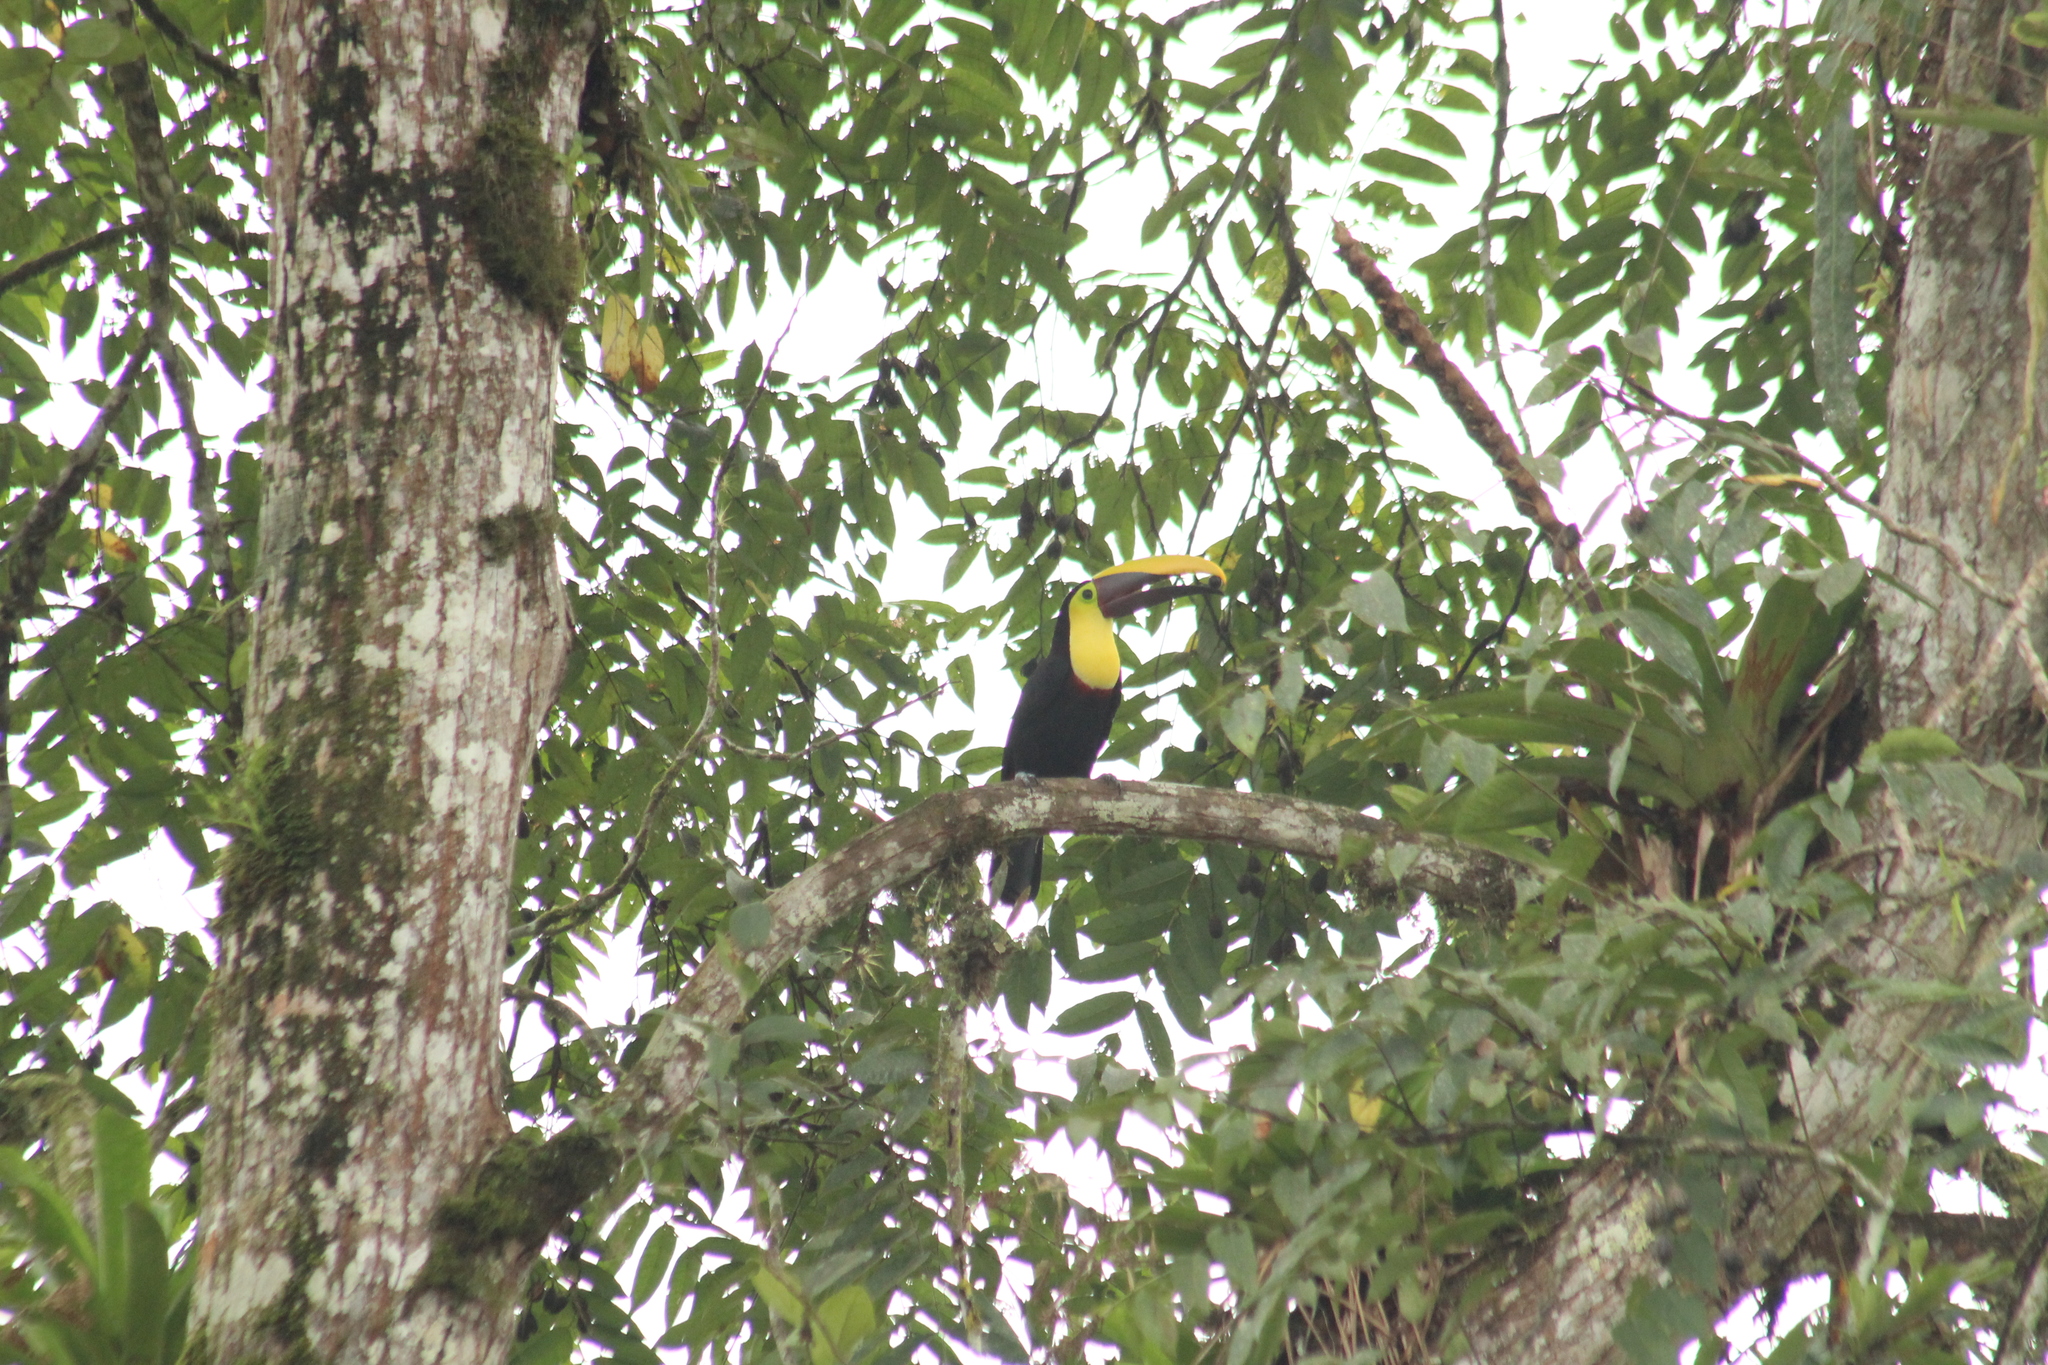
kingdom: Animalia
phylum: Chordata
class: Aves
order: Piciformes
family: Ramphastidae
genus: Ramphastos
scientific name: Ramphastos ambiguus
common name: Yellow-throated toucan
